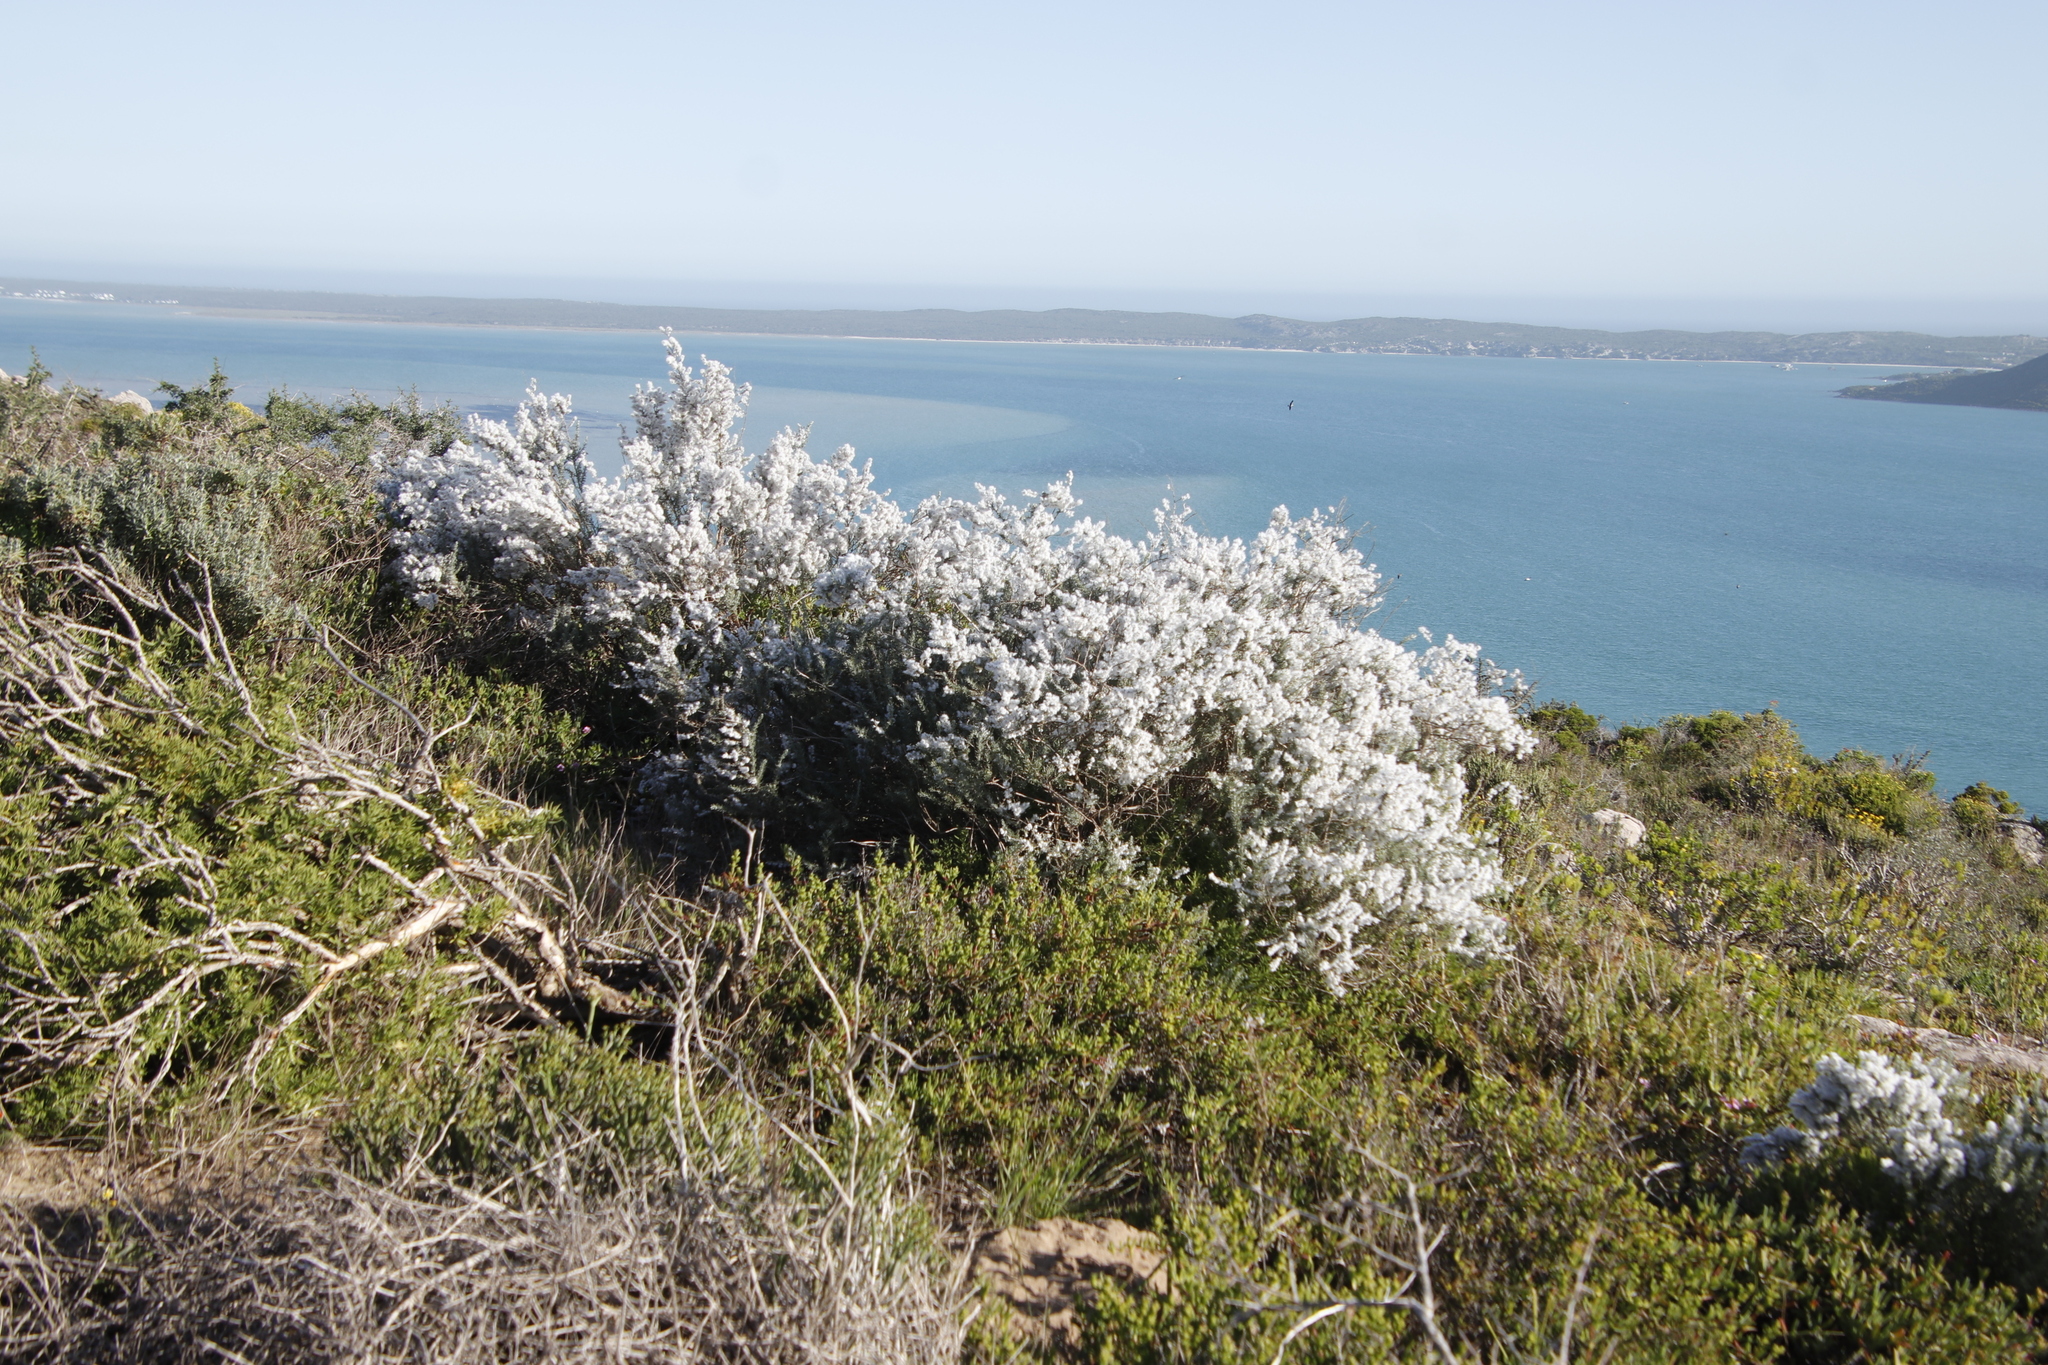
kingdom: Plantae
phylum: Tracheophyta
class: Magnoliopsida
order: Asterales
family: Asteraceae
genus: Eriocephalus
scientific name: Eriocephalus racemosus
